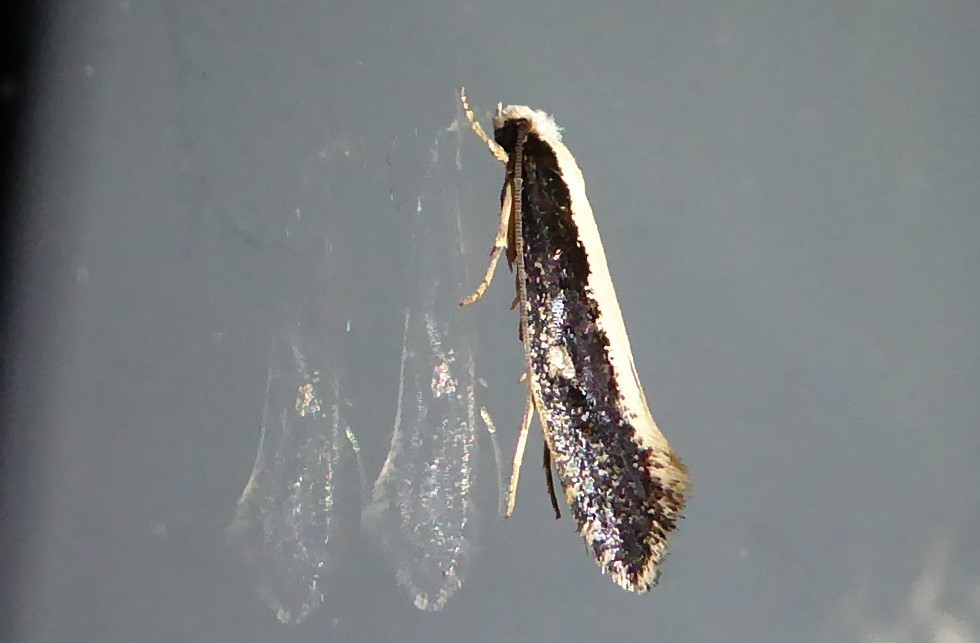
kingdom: Animalia
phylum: Arthropoda
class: Insecta
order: Lepidoptera
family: Tineidae
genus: Monopis
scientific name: Monopis ethelella
